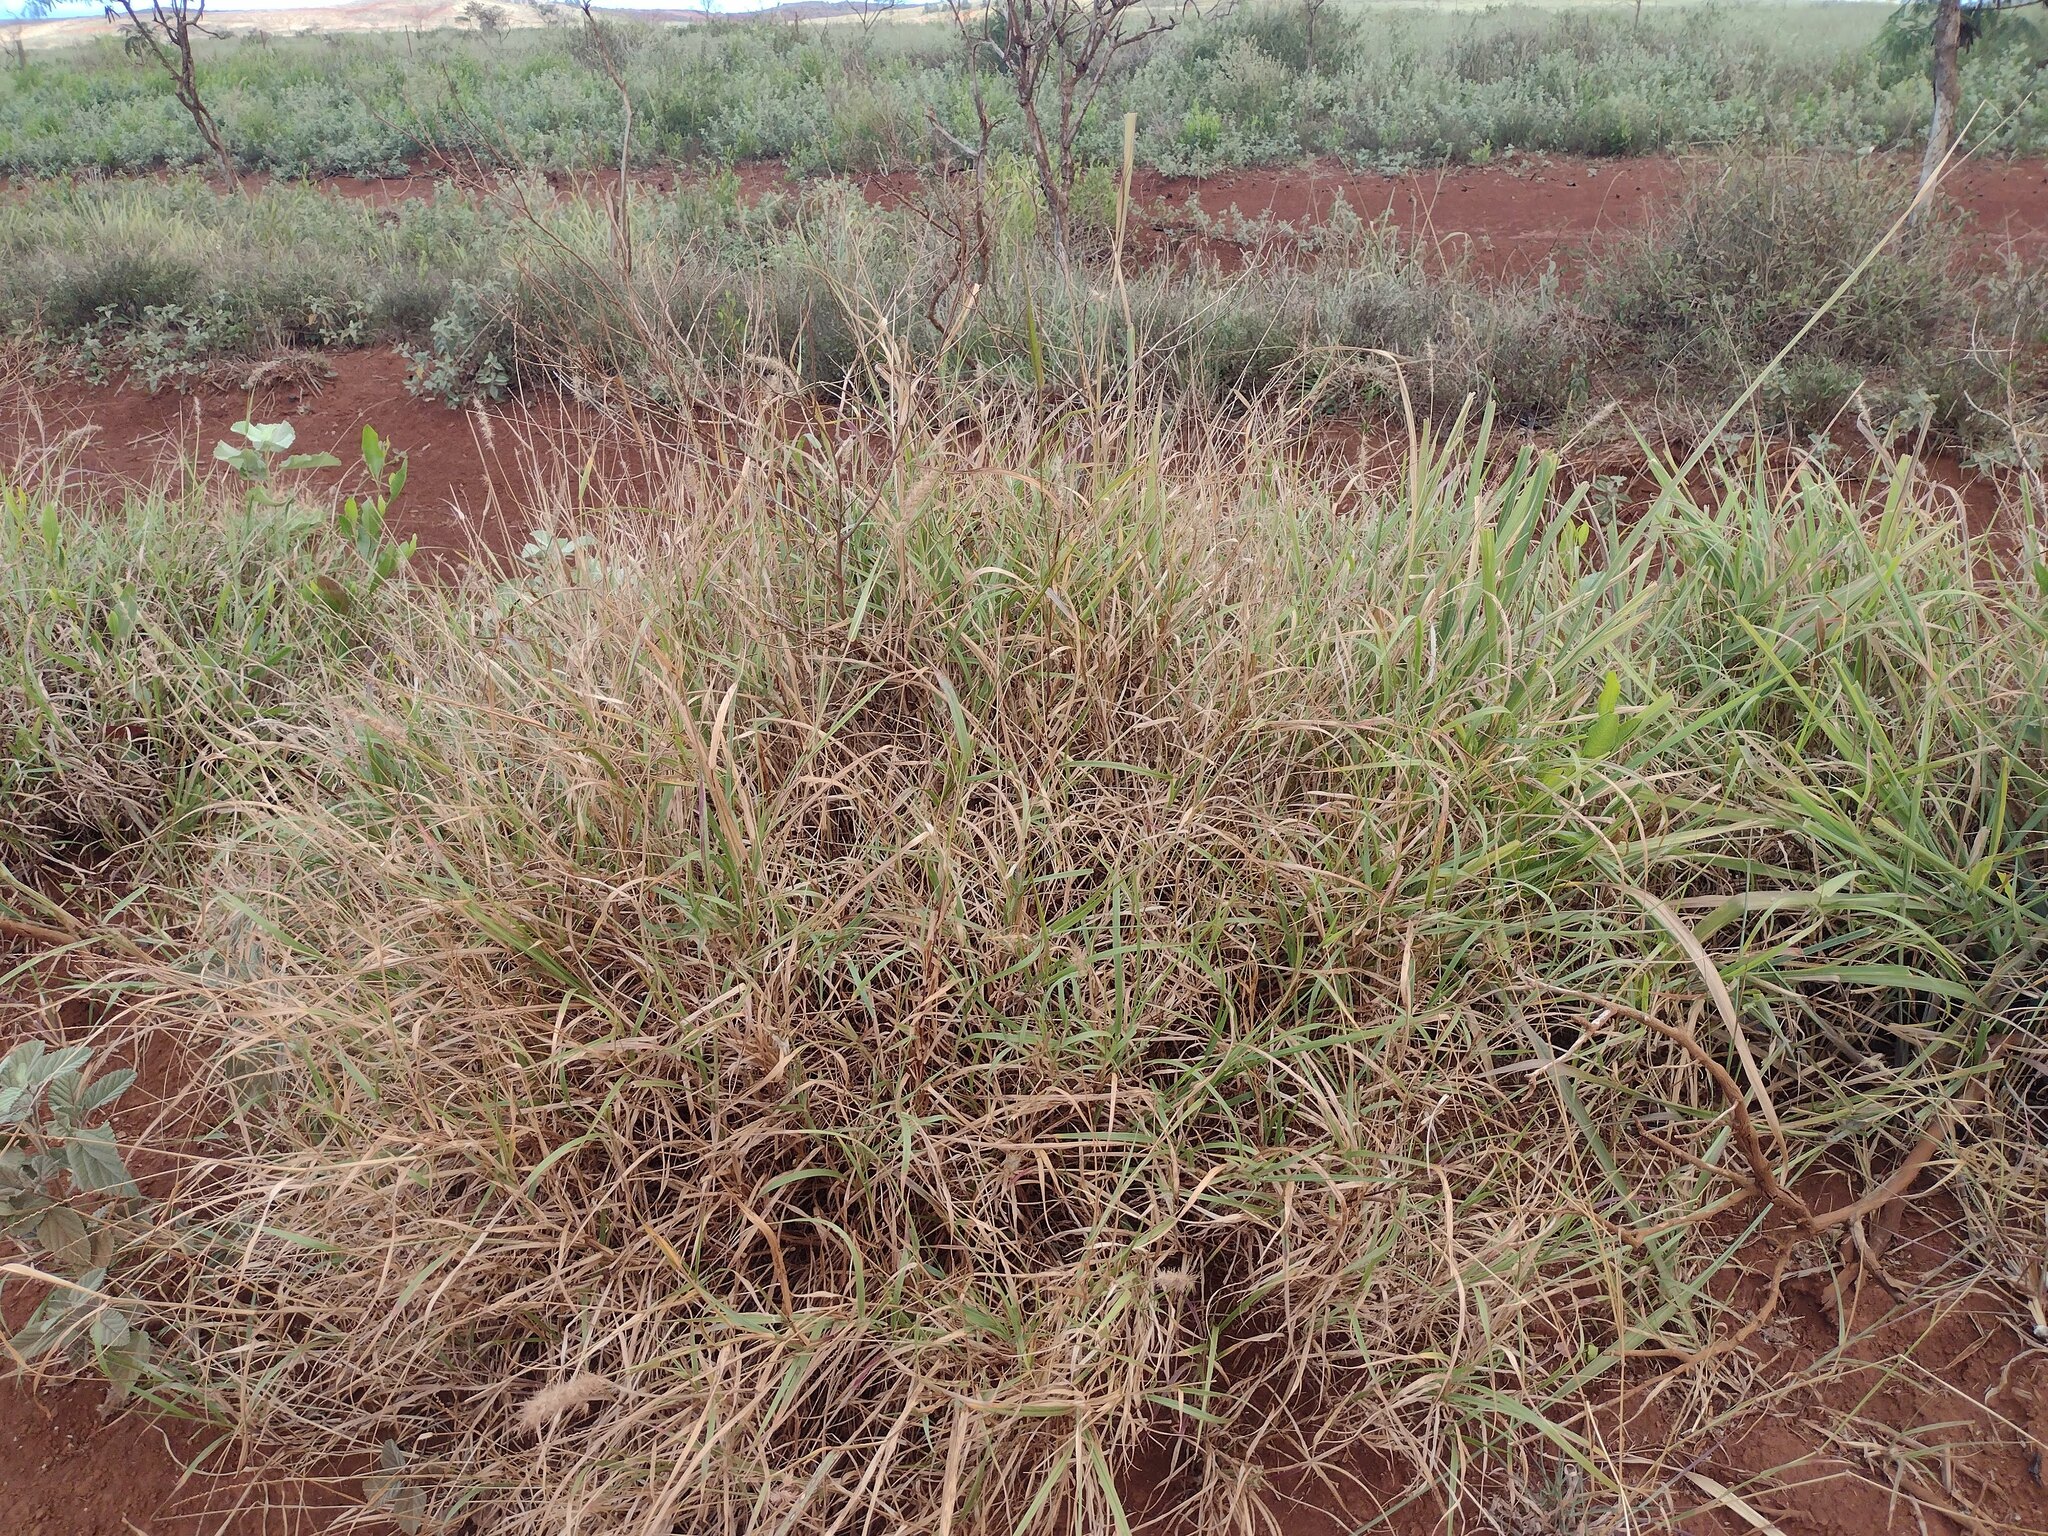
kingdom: Plantae
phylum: Tracheophyta
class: Liliopsida
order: Poales
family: Poaceae
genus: Cenchrus
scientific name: Cenchrus ciliaris
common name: Buffelgrass
